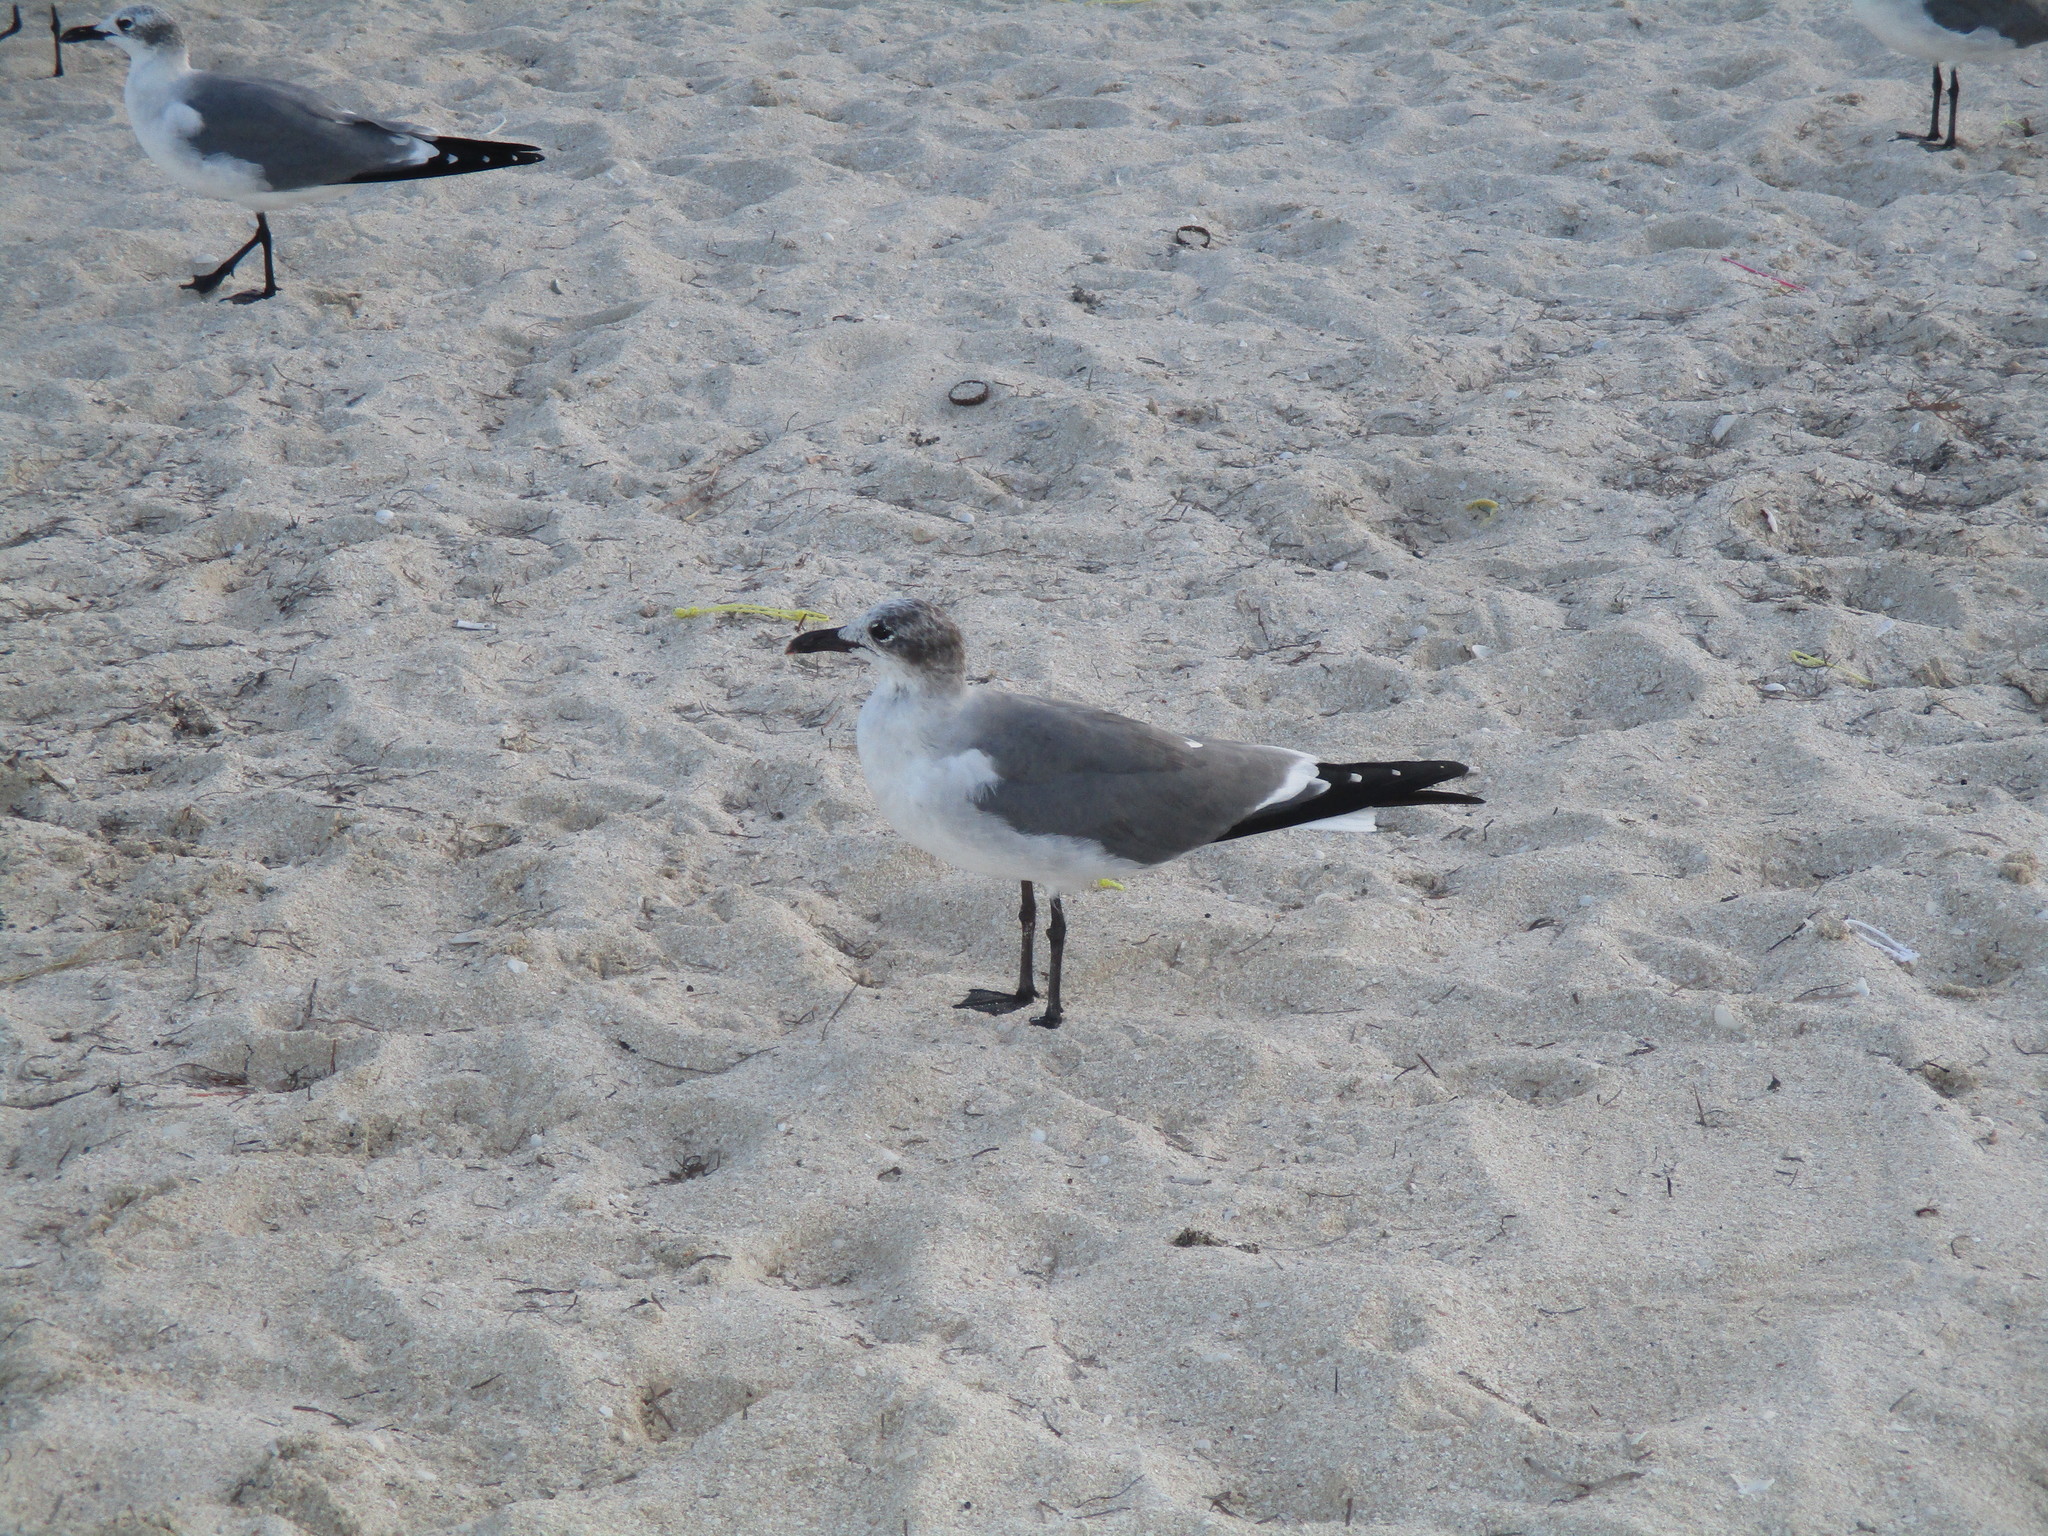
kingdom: Animalia
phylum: Chordata
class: Aves
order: Charadriiformes
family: Laridae
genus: Leucophaeus
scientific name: Leucophaeus atricilla
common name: Laughing gull
